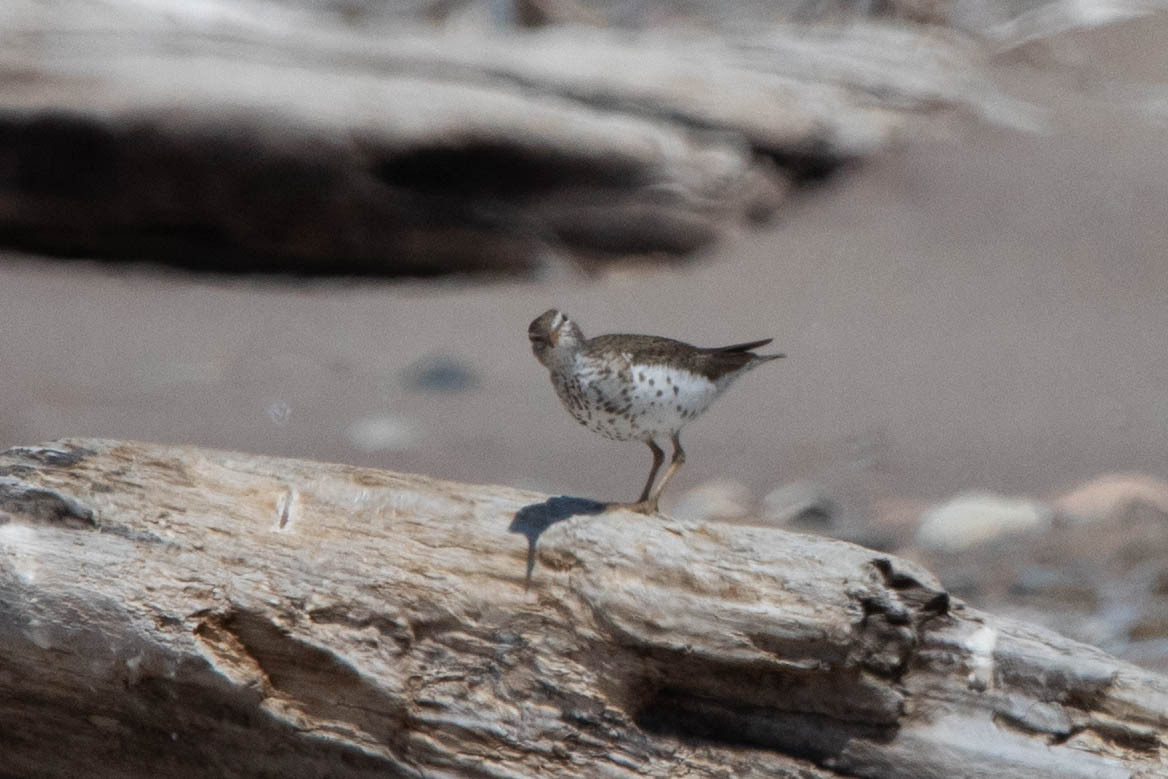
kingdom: Animalia
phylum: Chordata
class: Aves
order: Charadriiformes
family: Scolopacidae
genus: Actitis
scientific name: Actitis macularius
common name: Spotted sandpiper
